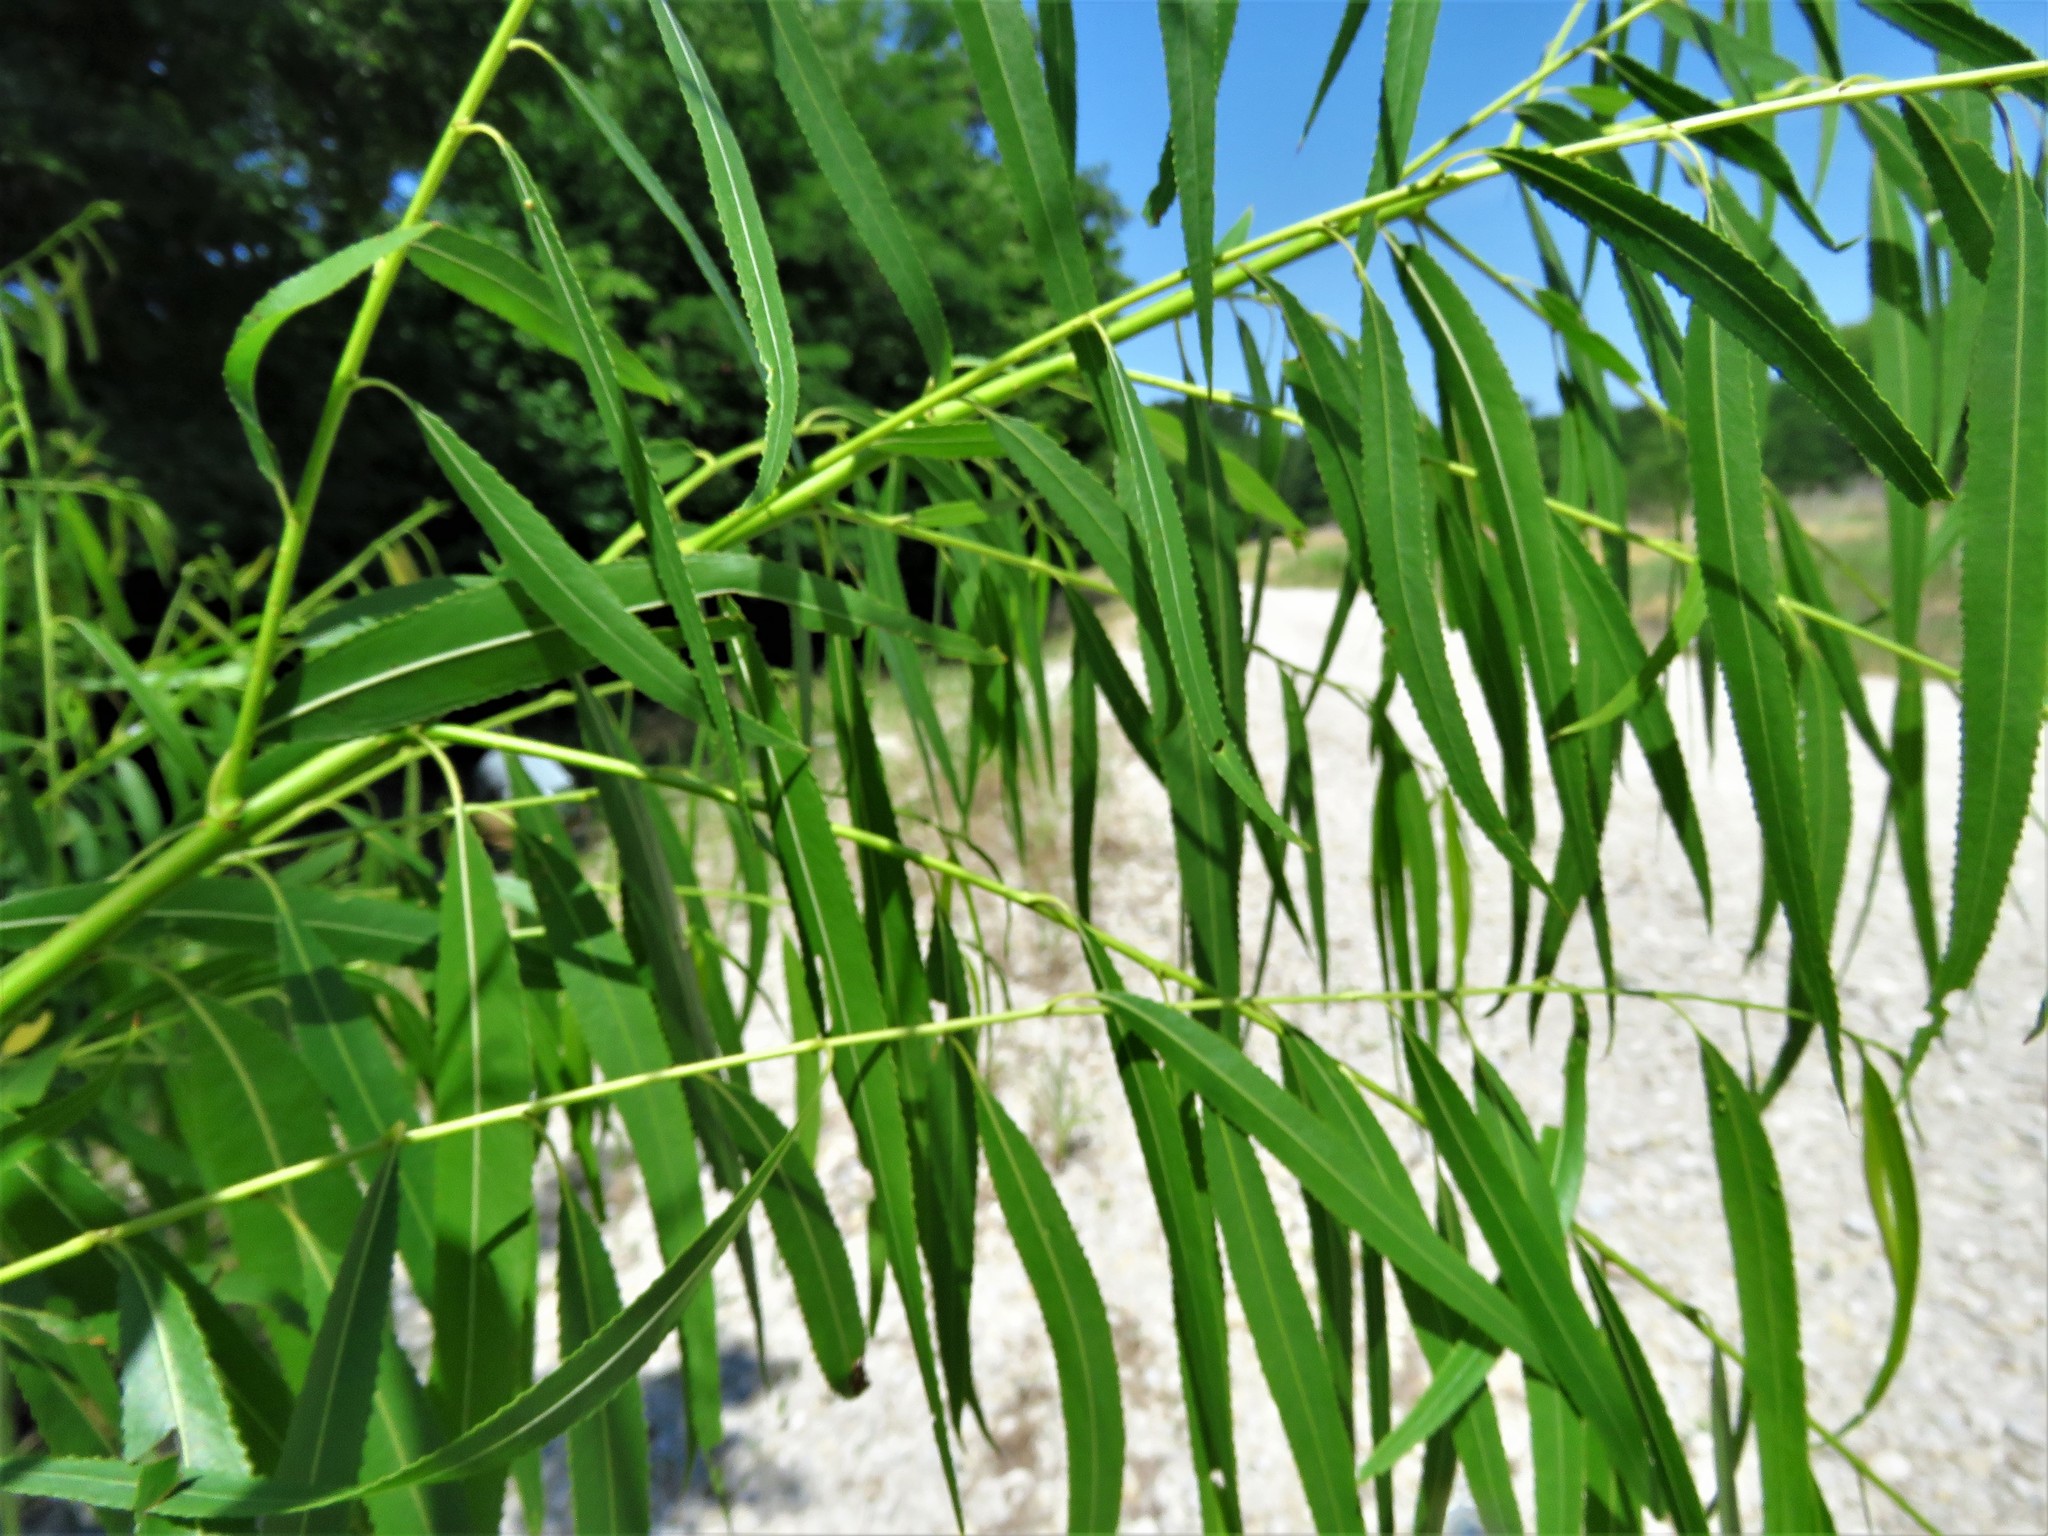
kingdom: Plantae
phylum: Tracheophyta
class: Magnoliopsida
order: Malpighiales
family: Salicaceae
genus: Salix
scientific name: Salix nigra
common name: Black willow
